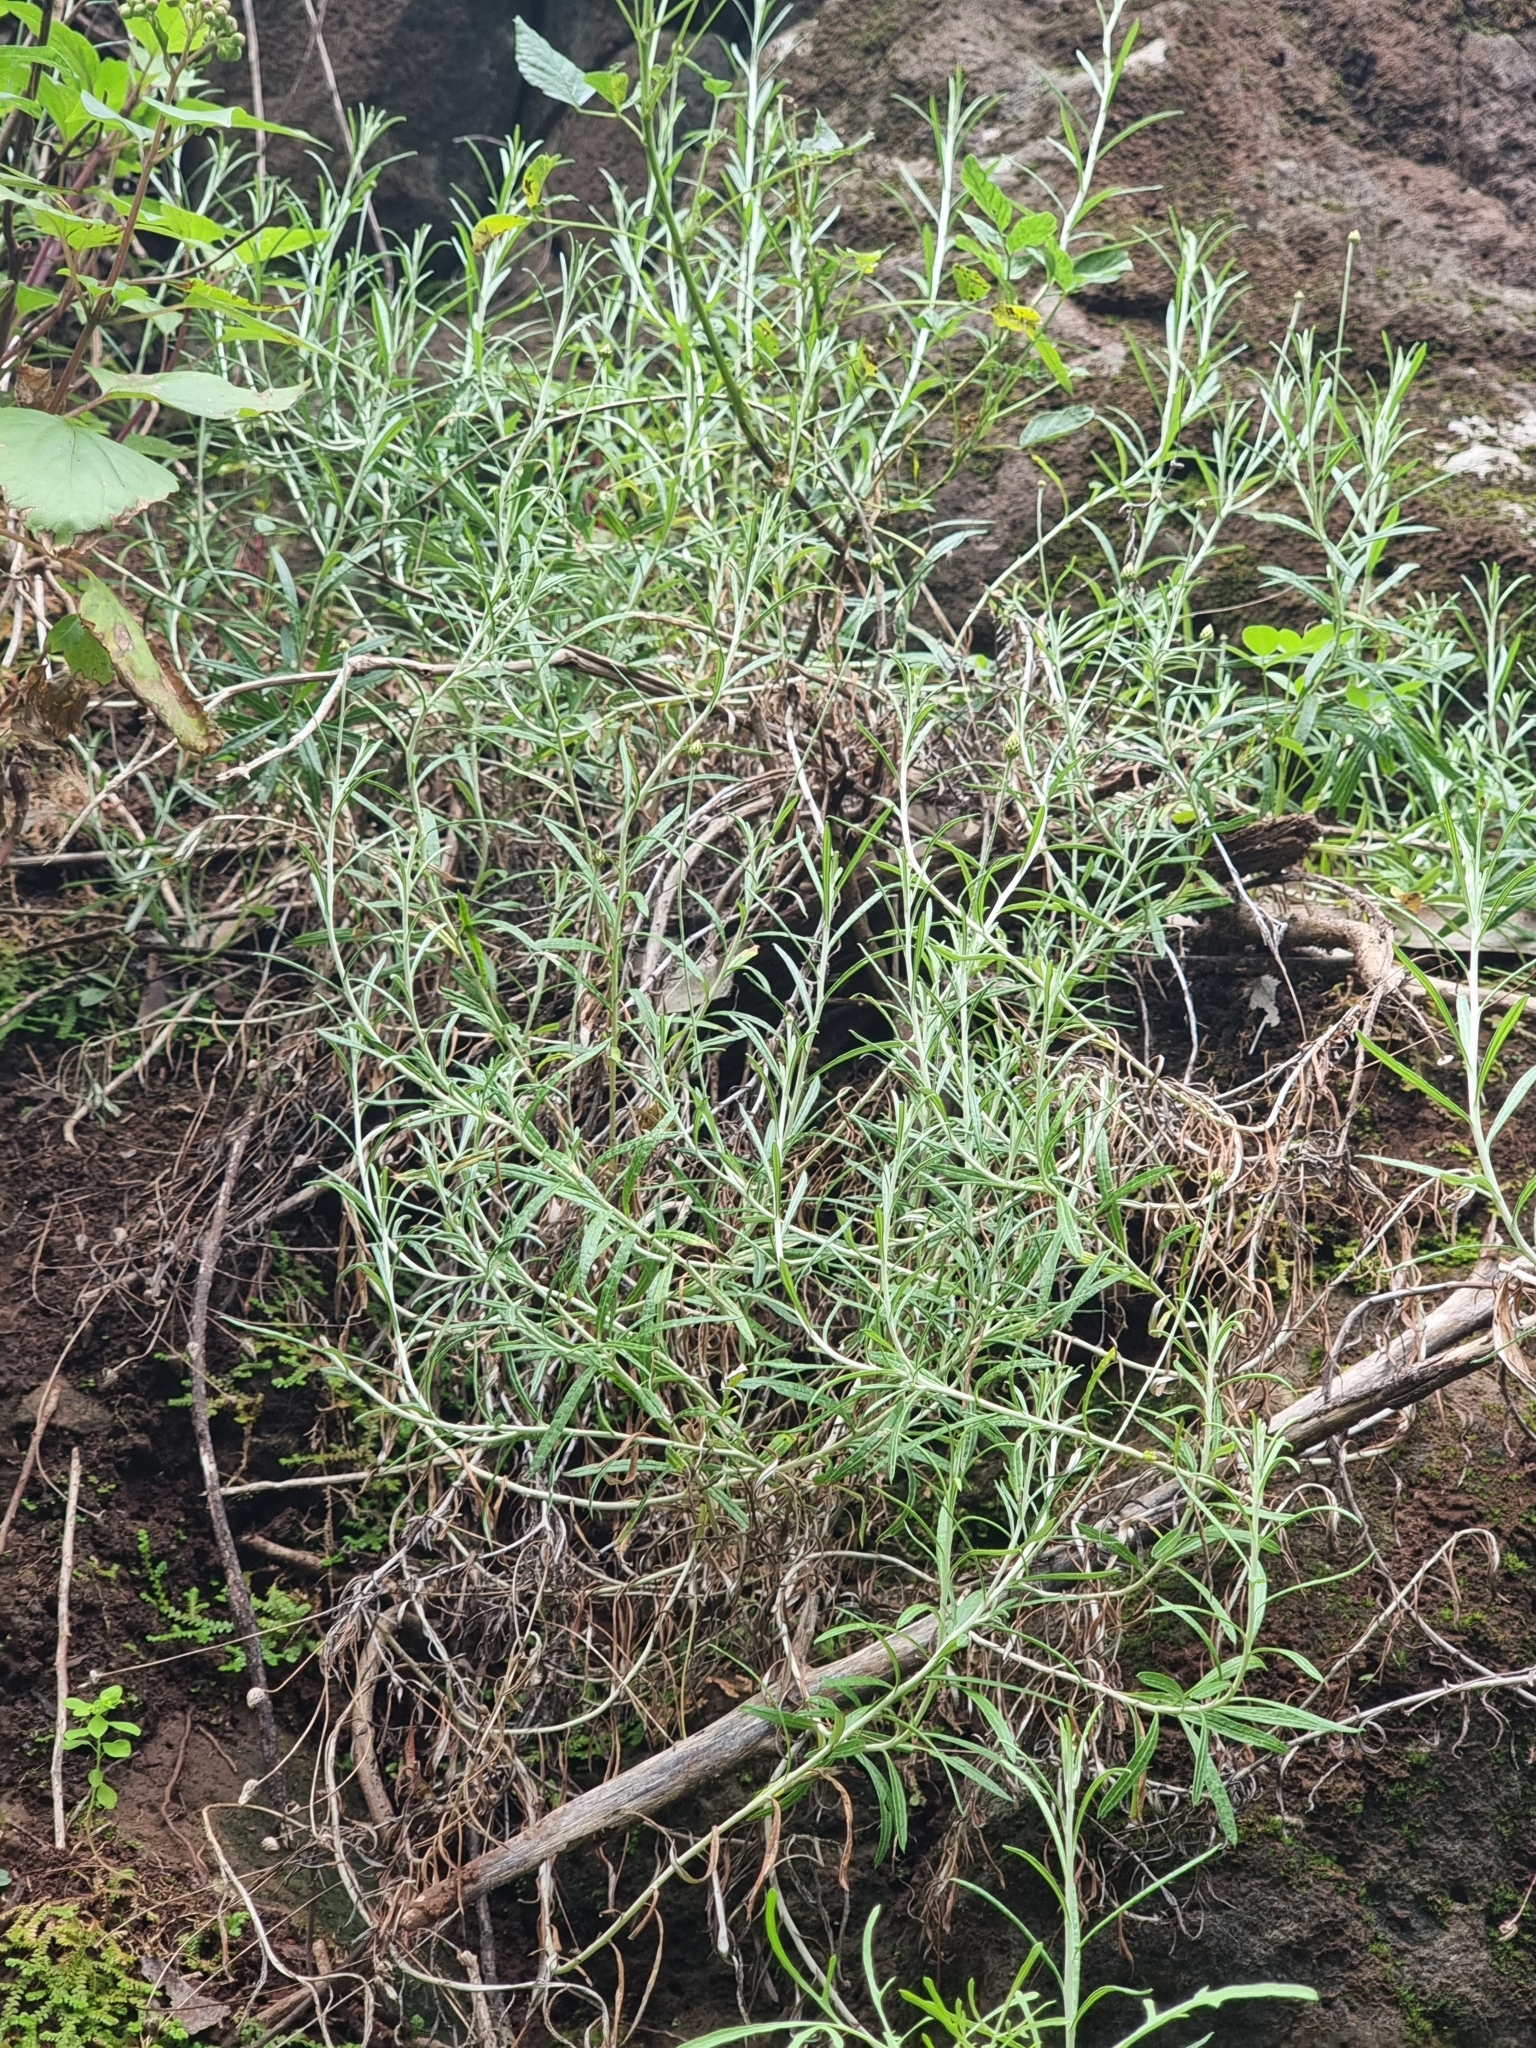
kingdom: Plantae
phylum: Tracheophyta
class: Magnoliopsida
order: Asterales
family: Asteraceae
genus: Phagnalon
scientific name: Phagnalon saxatile
